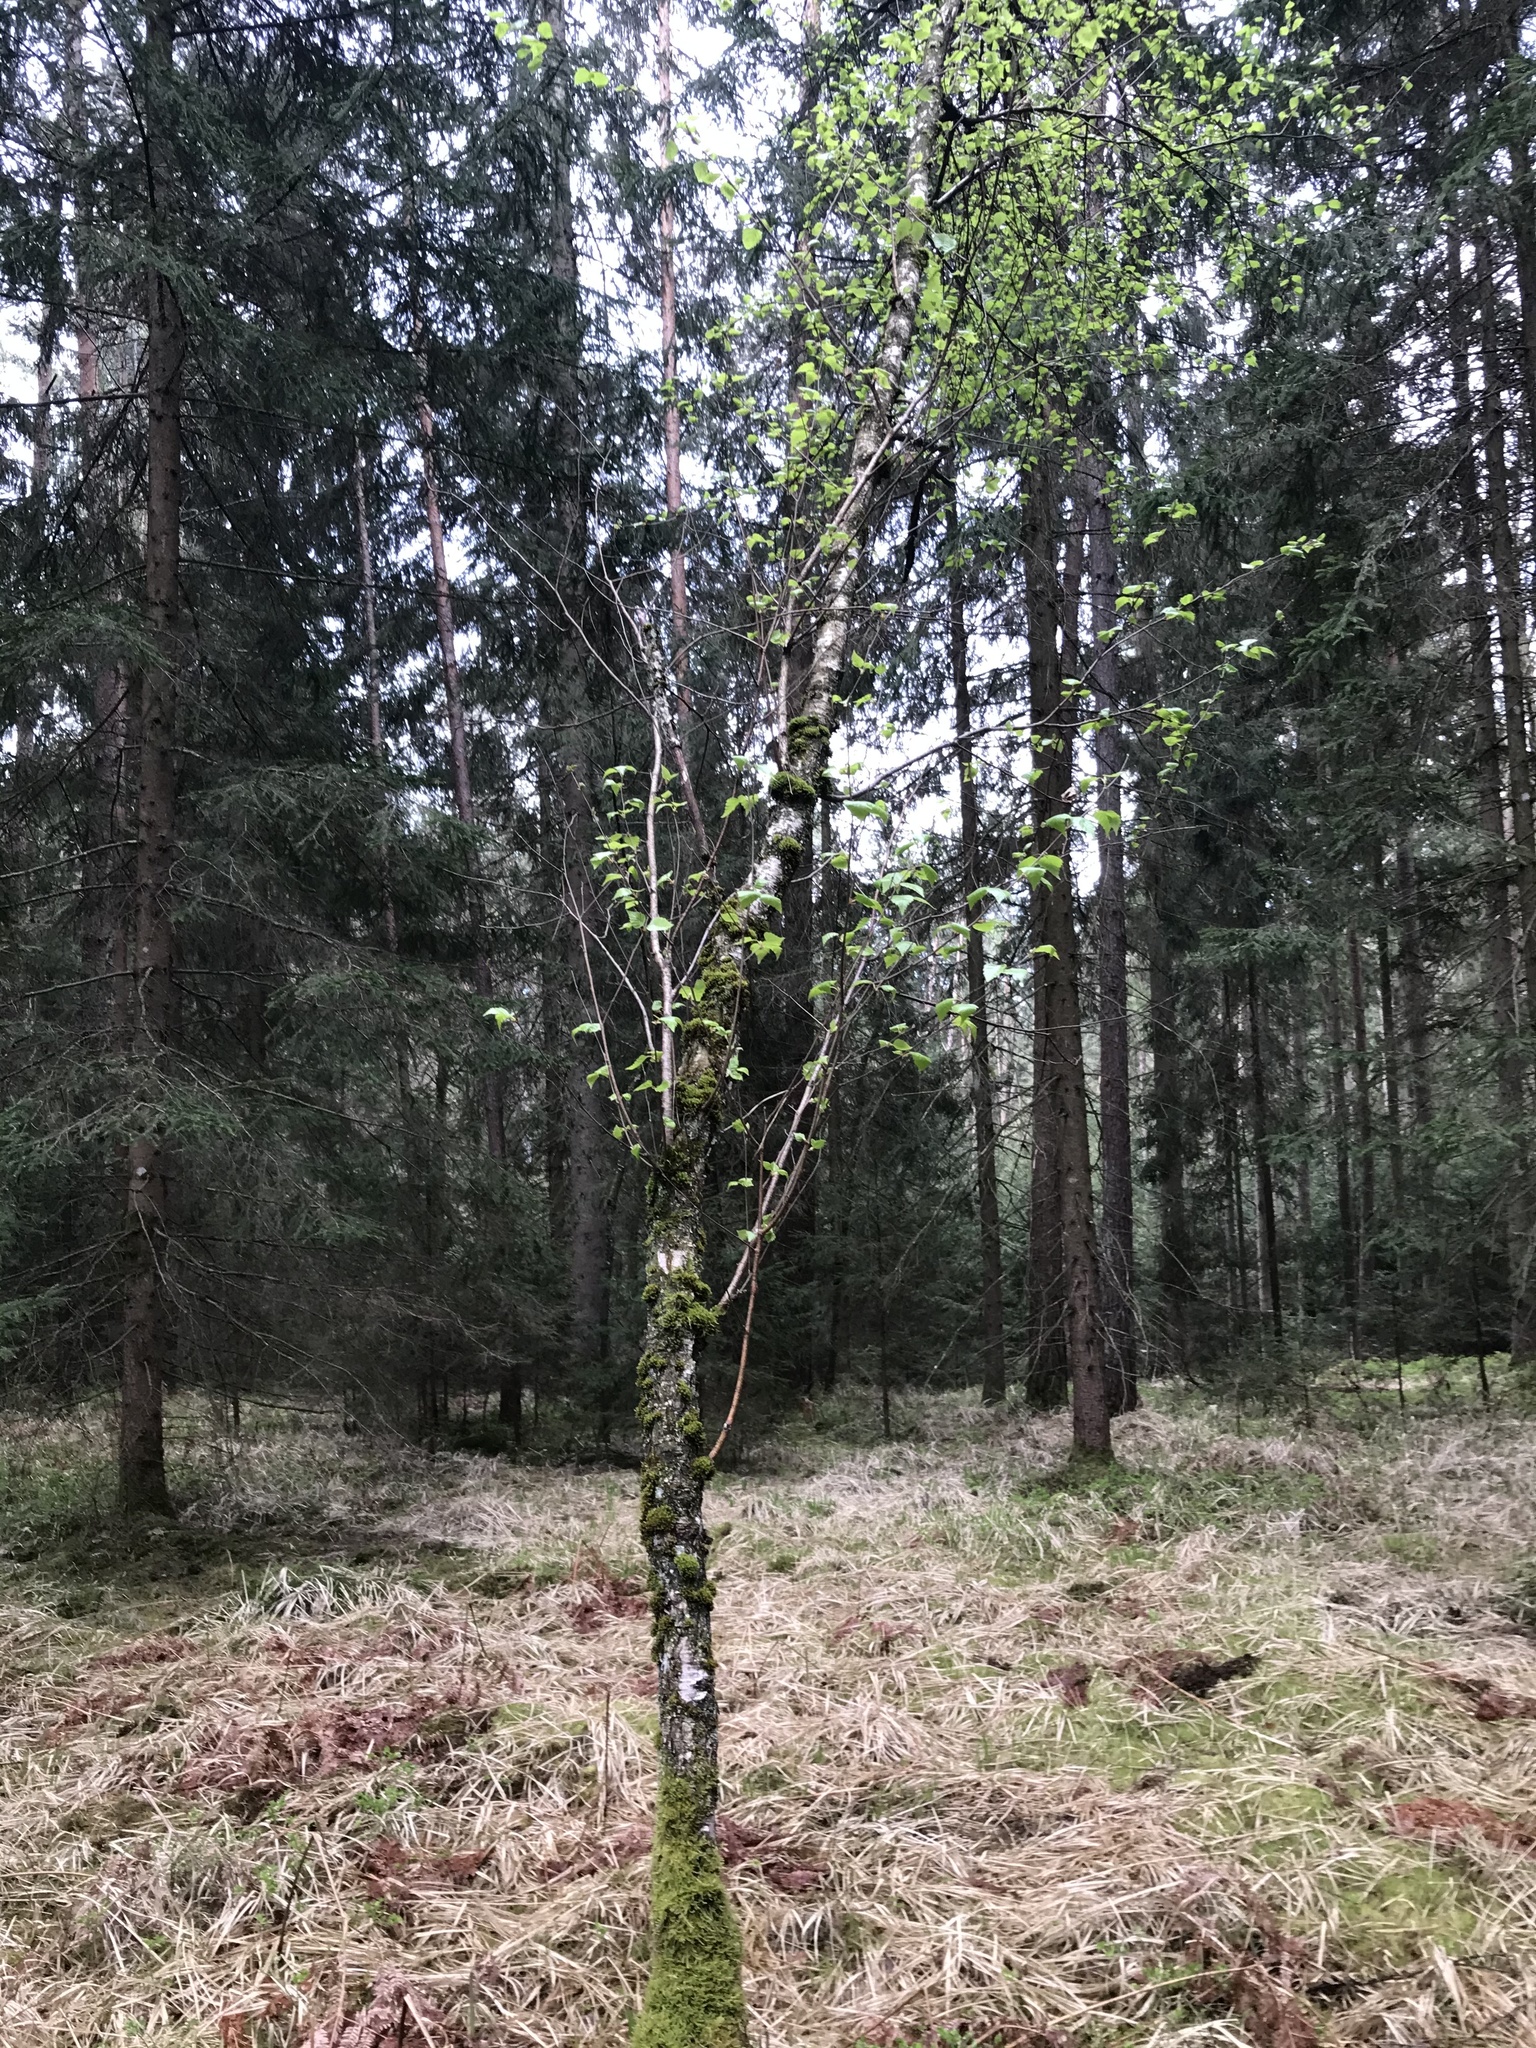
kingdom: Plantae
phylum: Tracheophyta
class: Magnoliopsida
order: Fagales
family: Betulaceae
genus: Betula
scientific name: Betula pendula
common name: Silver birch
